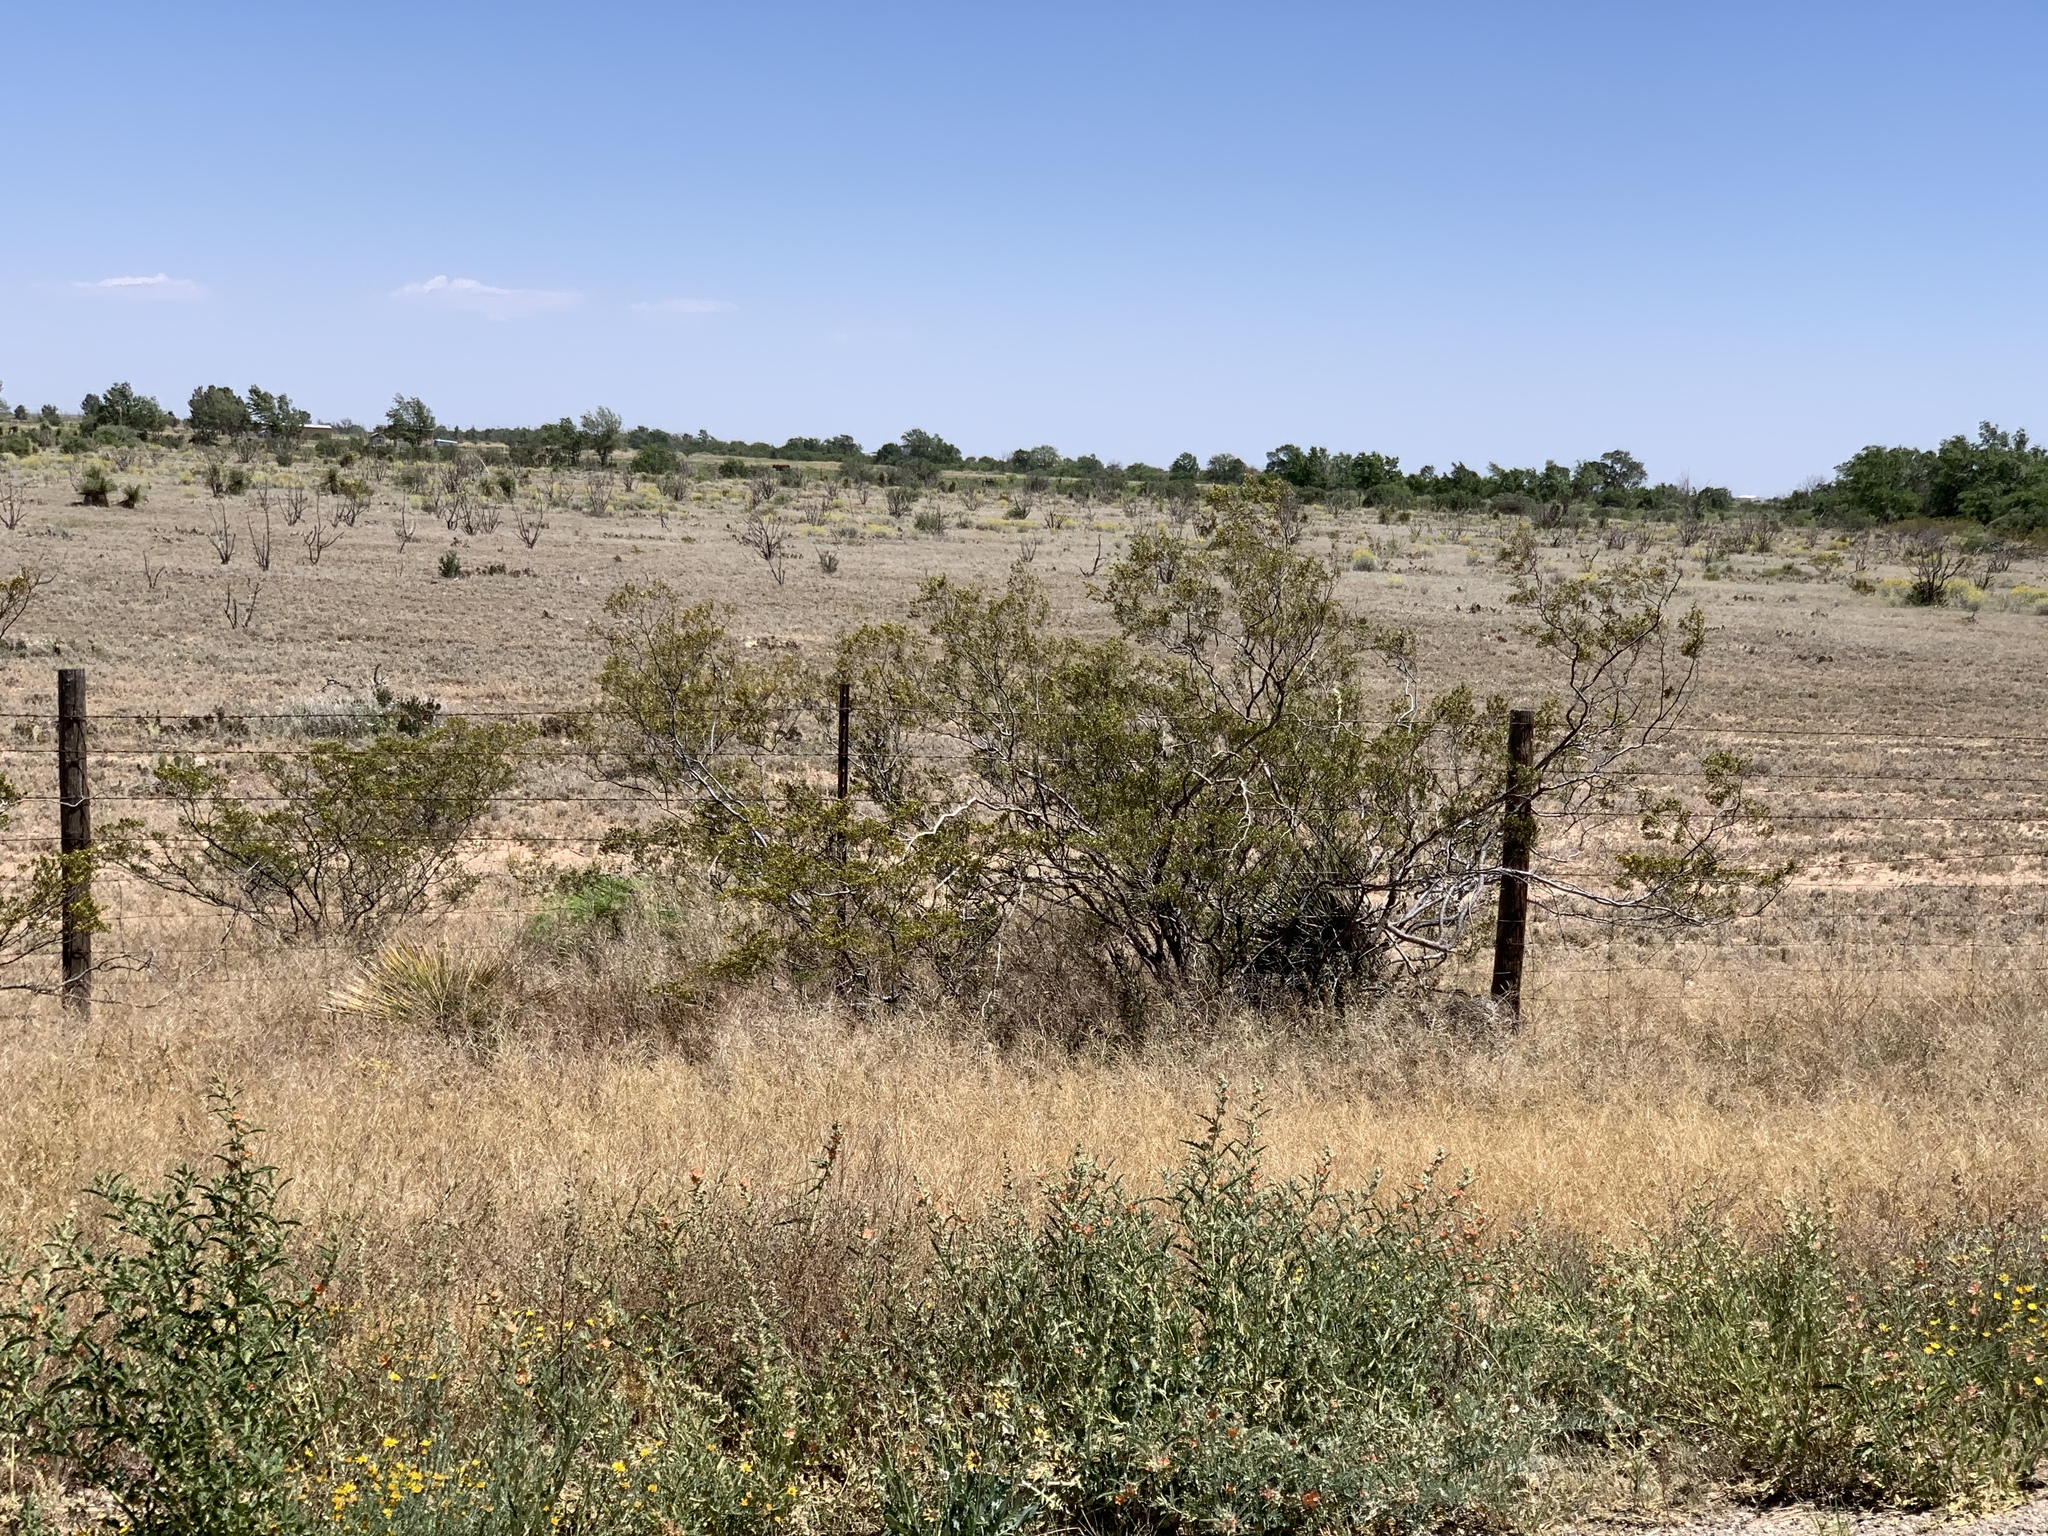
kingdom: Plantae
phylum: Tracheophyta
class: Magnoliopsida
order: Zygophyllales
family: Zygophyllaceae
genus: Larrea
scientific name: Larrea tridentata
